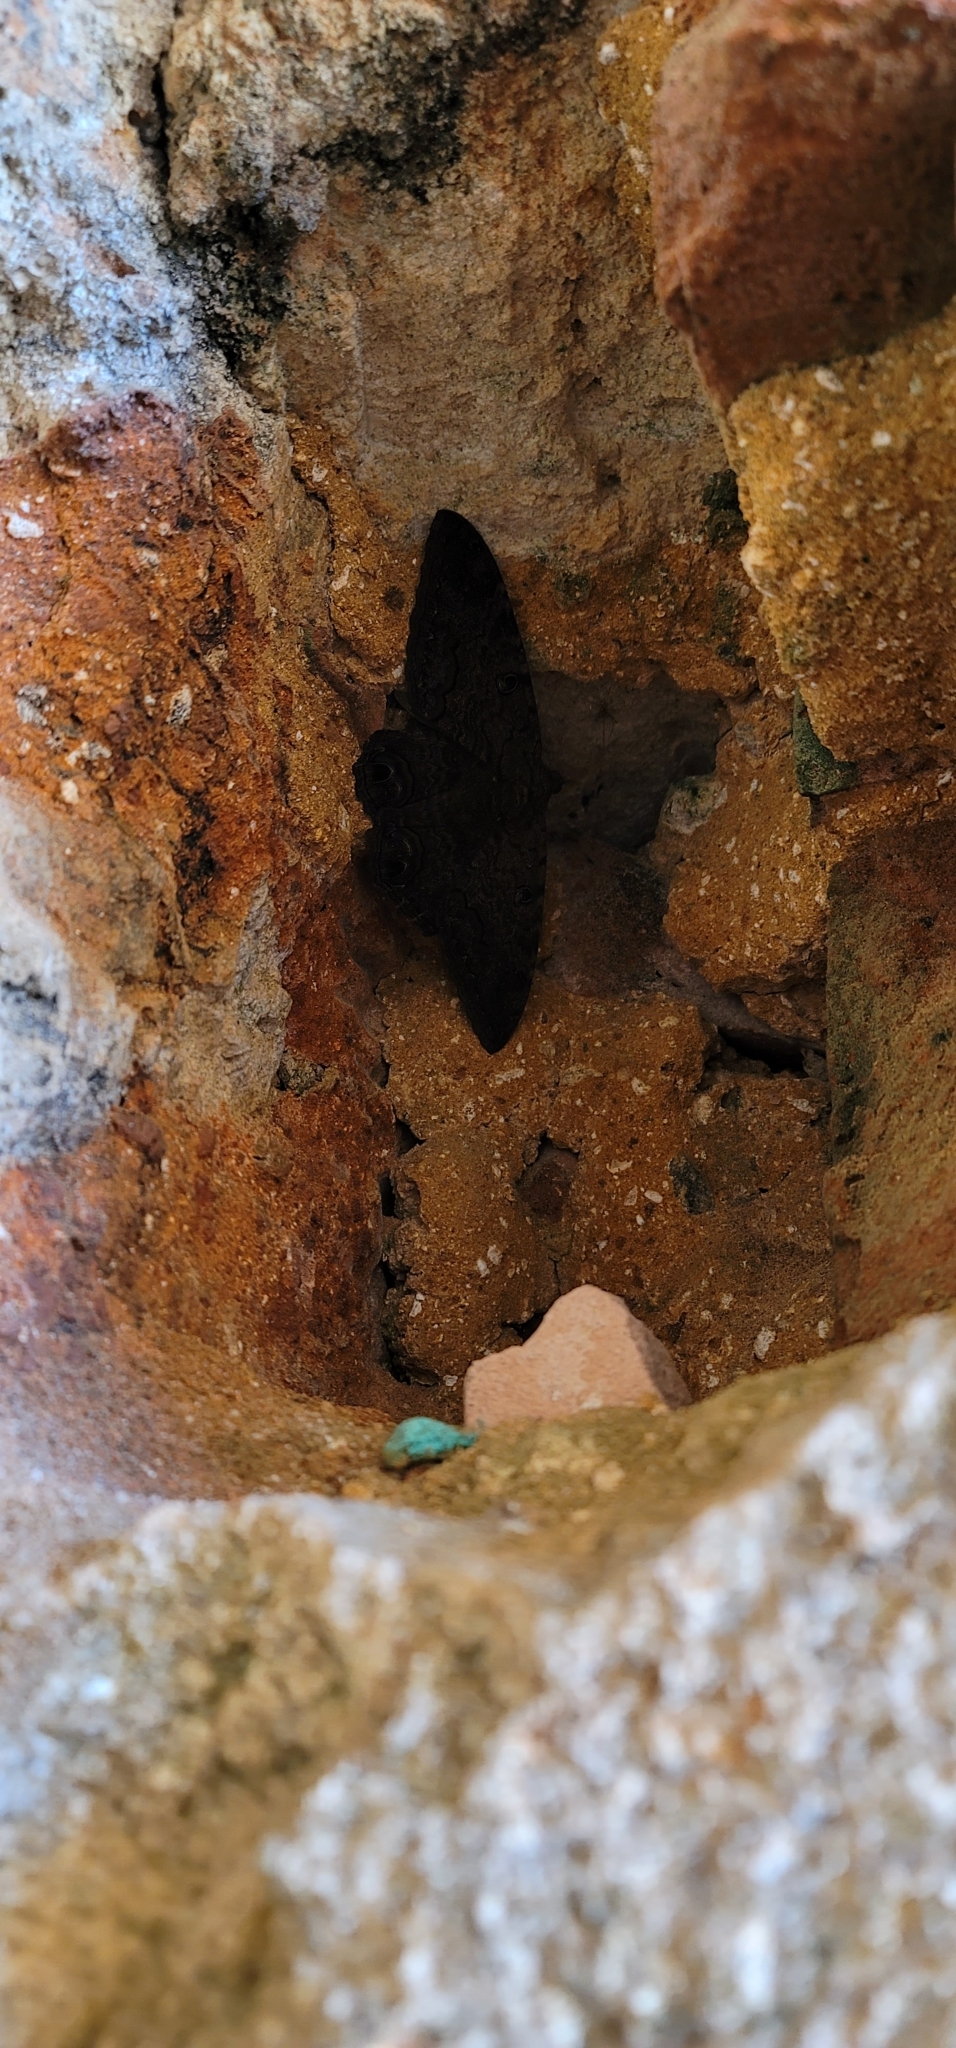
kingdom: Animalia
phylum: Arthropoda
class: Insecta
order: Lepidoptera
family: Erebidae
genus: Ascalapha
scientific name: Ascalapha odorata
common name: Black witch
